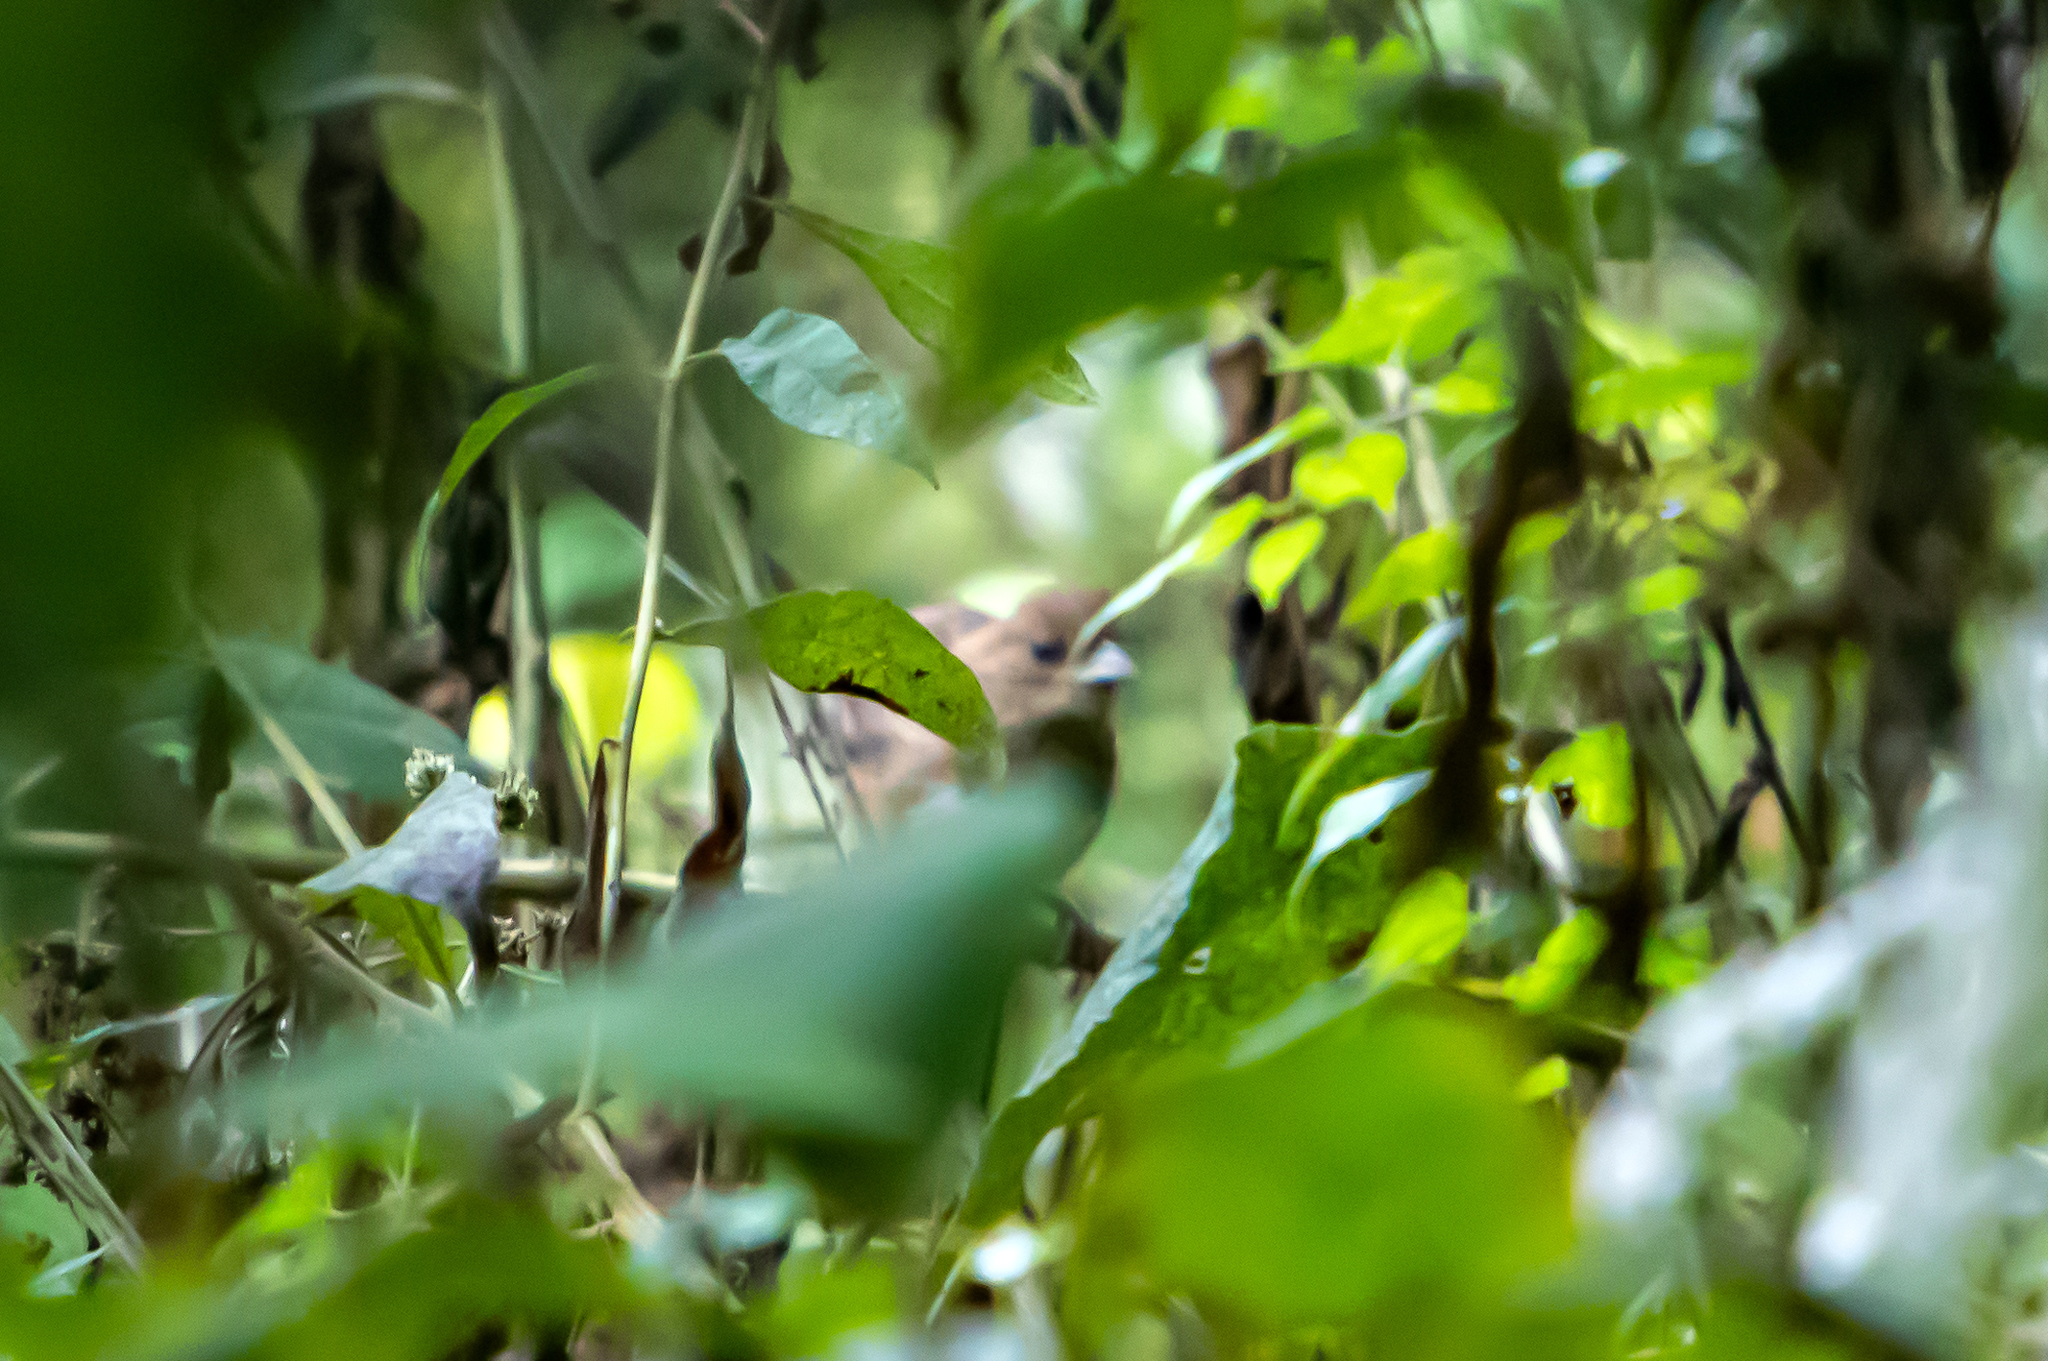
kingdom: Animalia
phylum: Chordata
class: Aves
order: Passeriformes
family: Cardinalidae
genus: Passerina
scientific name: Passerina cyanea
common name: Indigo bunting
